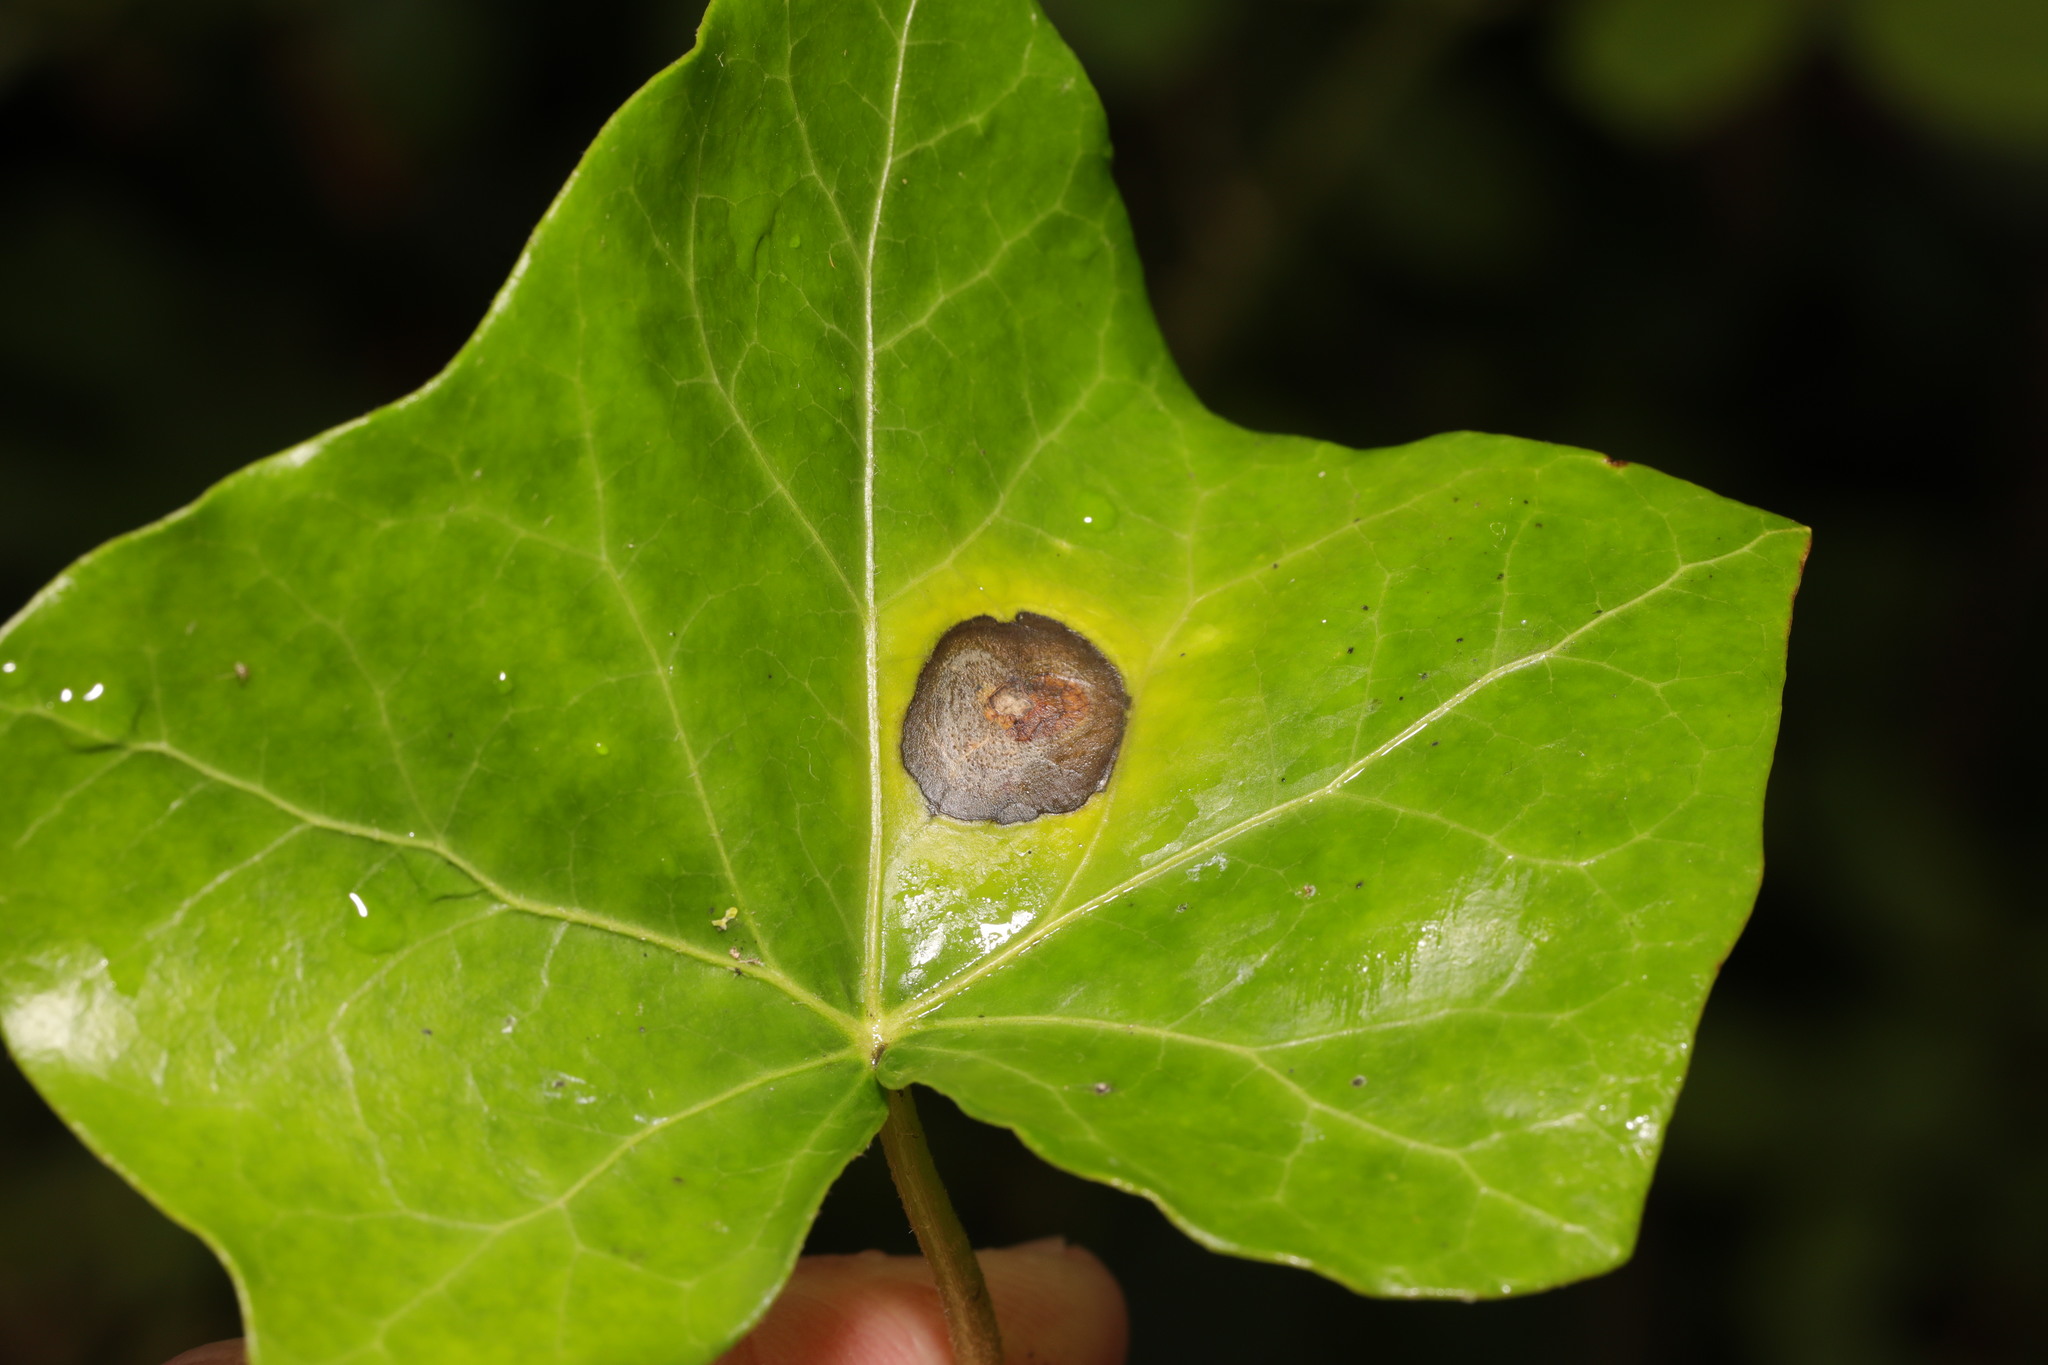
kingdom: Plantae
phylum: Tracheophyta
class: Magnoliopsida
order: Apiales
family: Araliaceae
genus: Hedera
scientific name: Hedera helix
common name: Ivy
